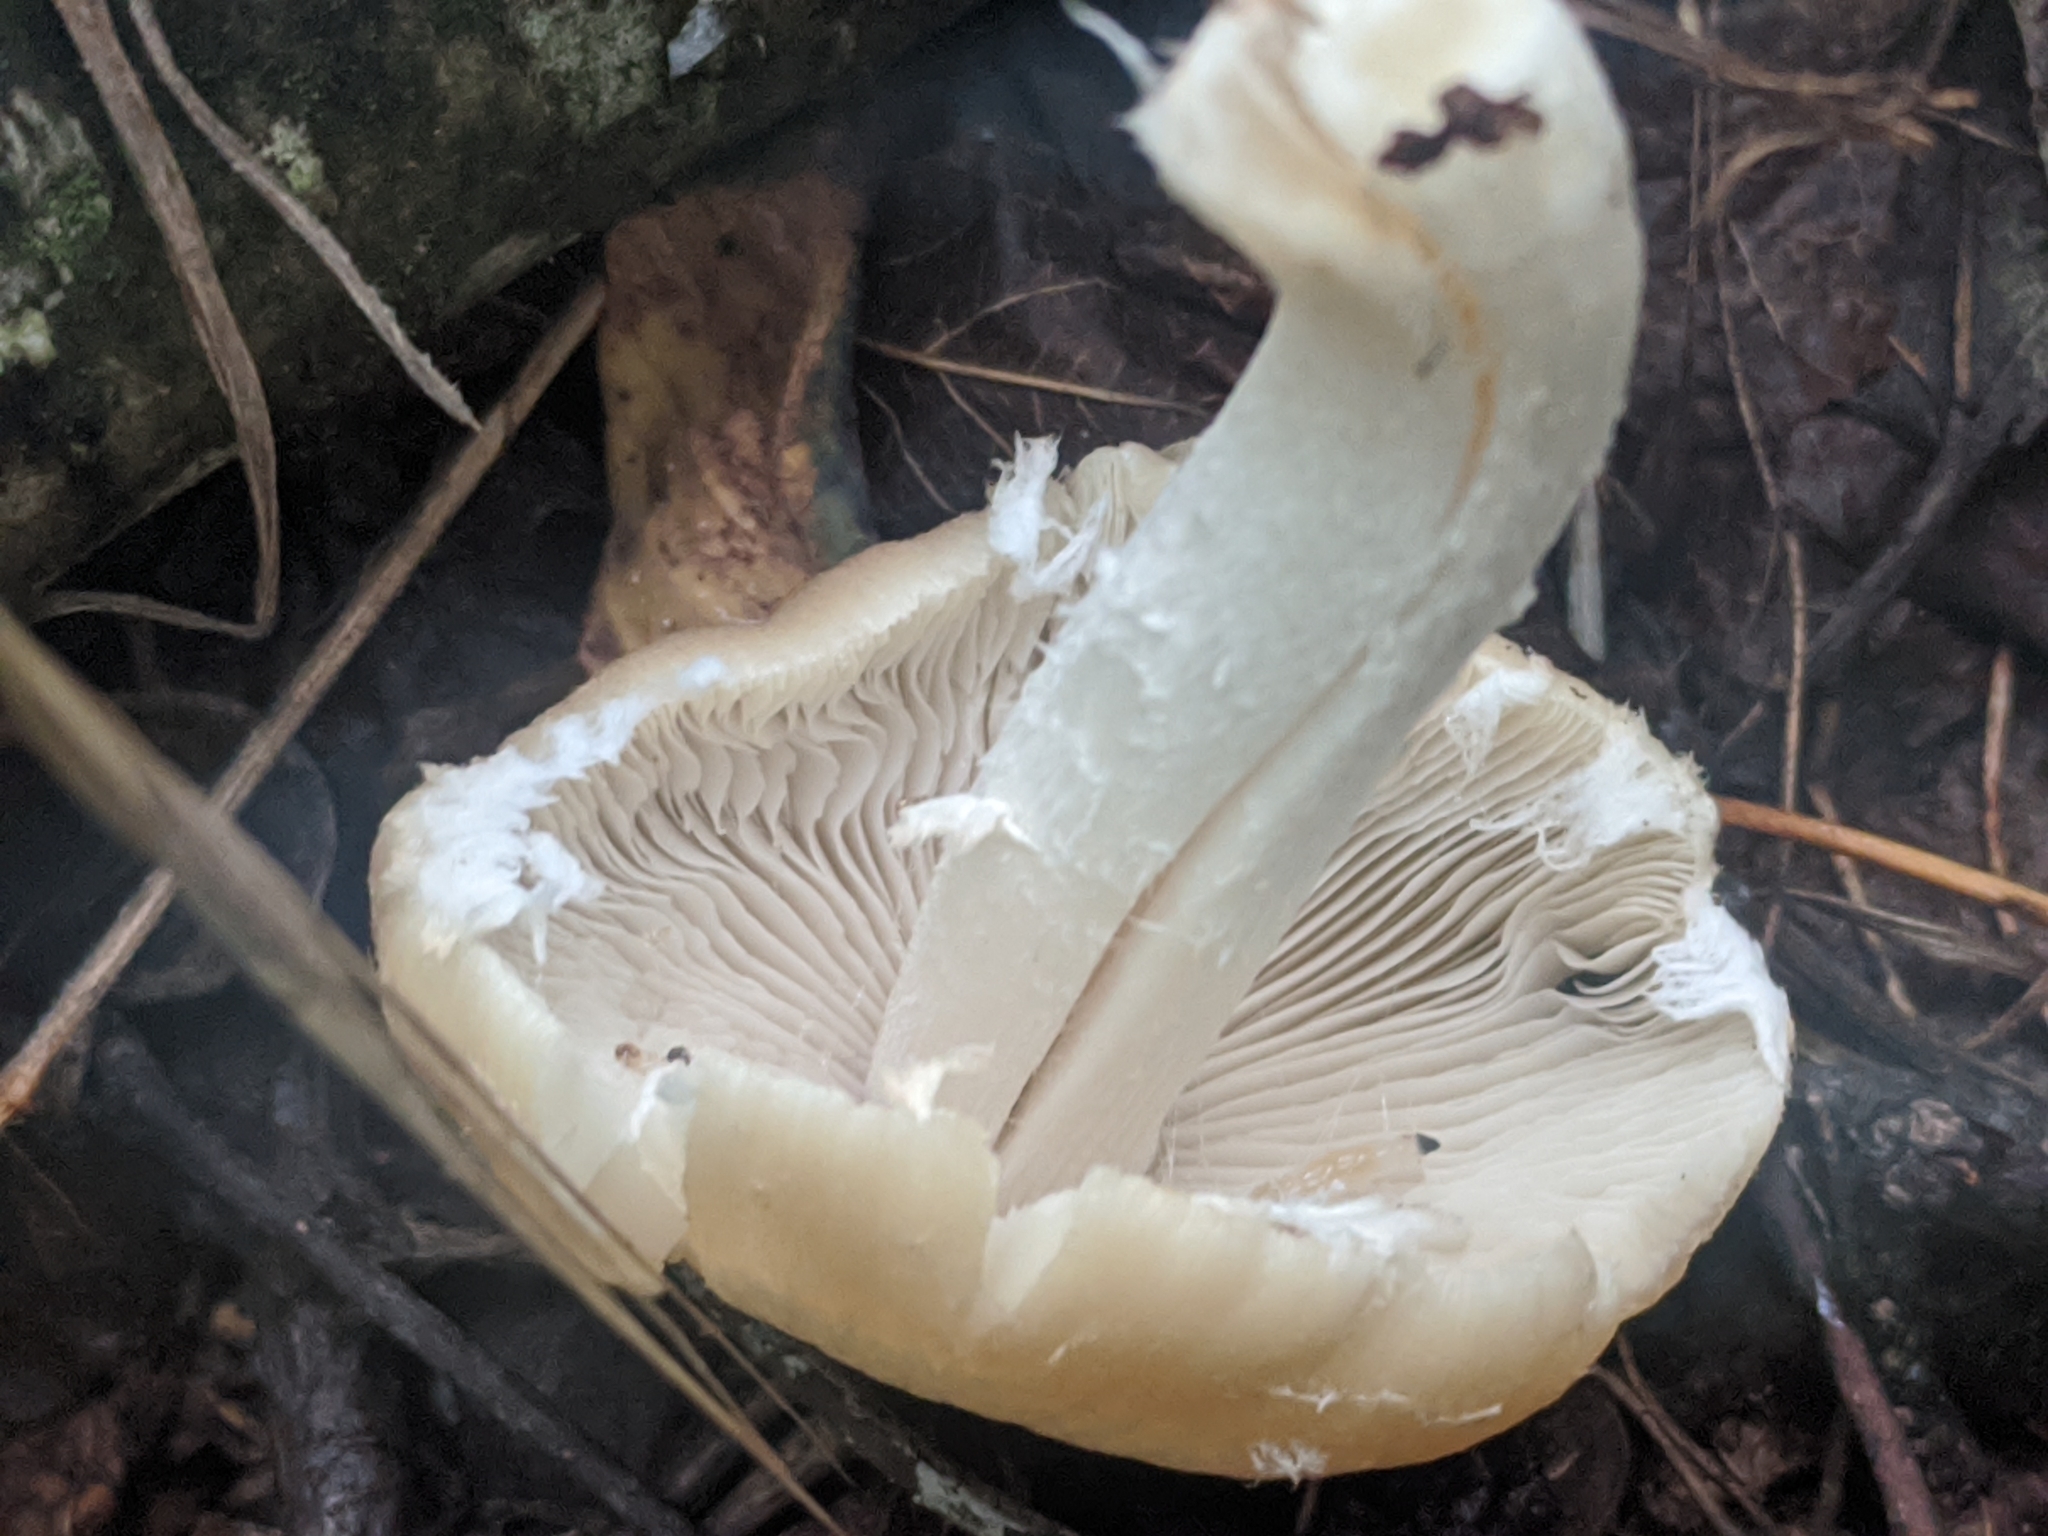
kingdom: Fungi
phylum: Basidiomycota
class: Agaricomycetes
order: Agaricales
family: Psathyrellaceae
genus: Candolleomyces
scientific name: Candolleomyces candolleanus
